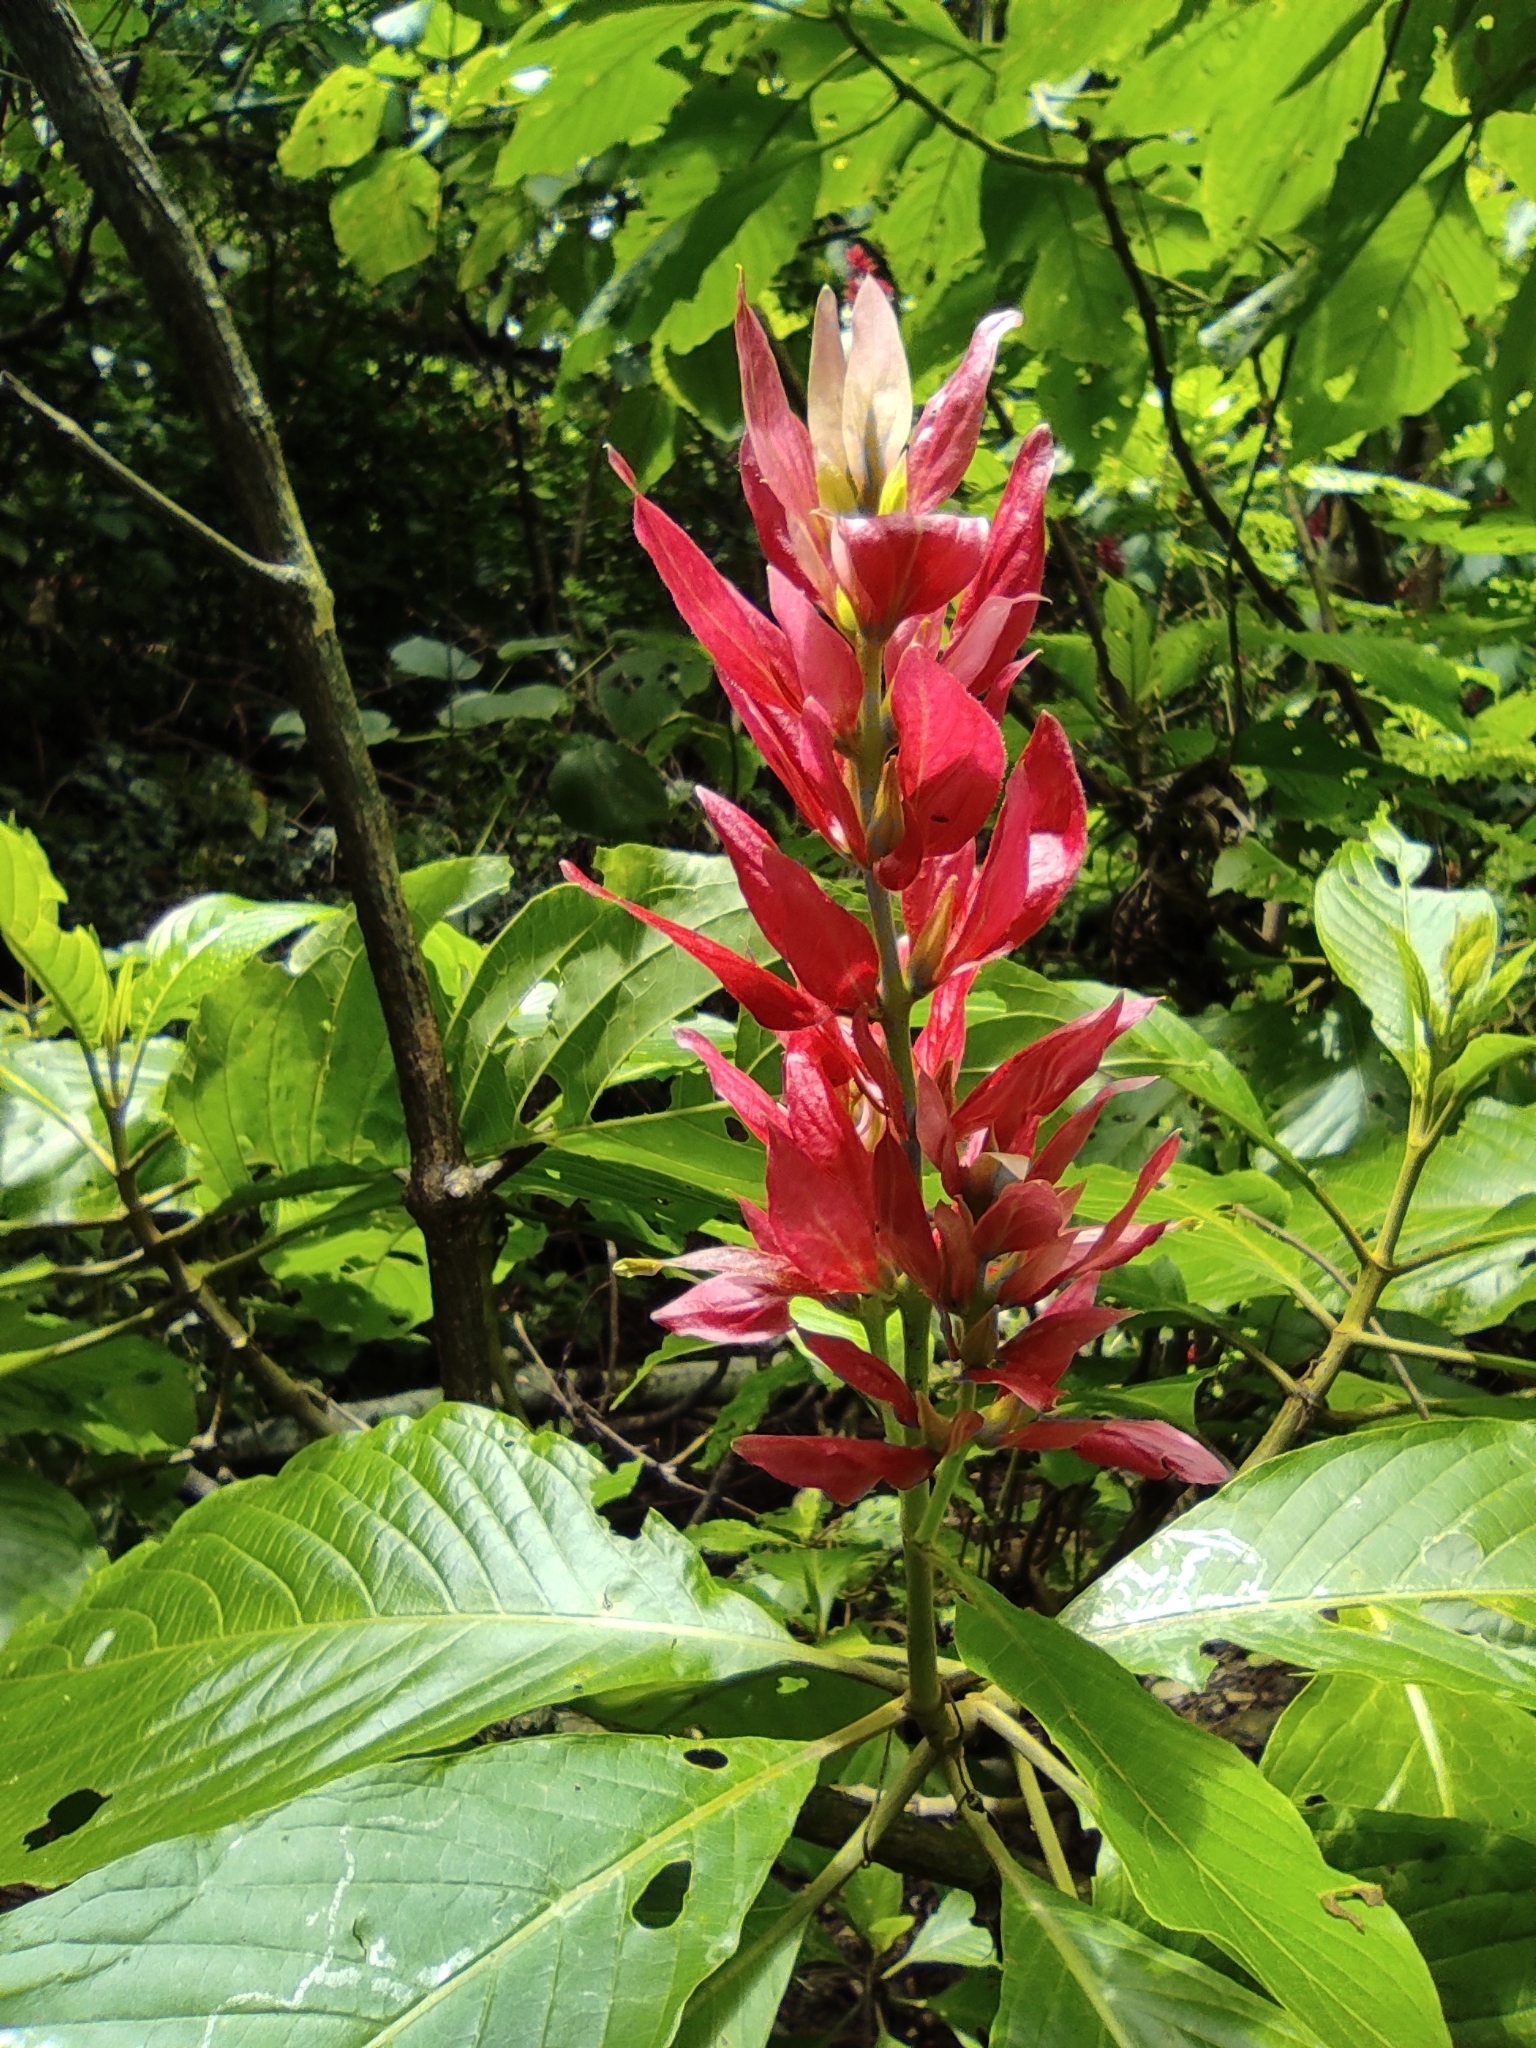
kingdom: Plantae
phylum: Tracheophyta
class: Magnoliopsida
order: Lamiales
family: Acanthaceae
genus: Megaskepasma
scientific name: Megaskepasma erythrochlamys
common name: Brazilian red-cloak
